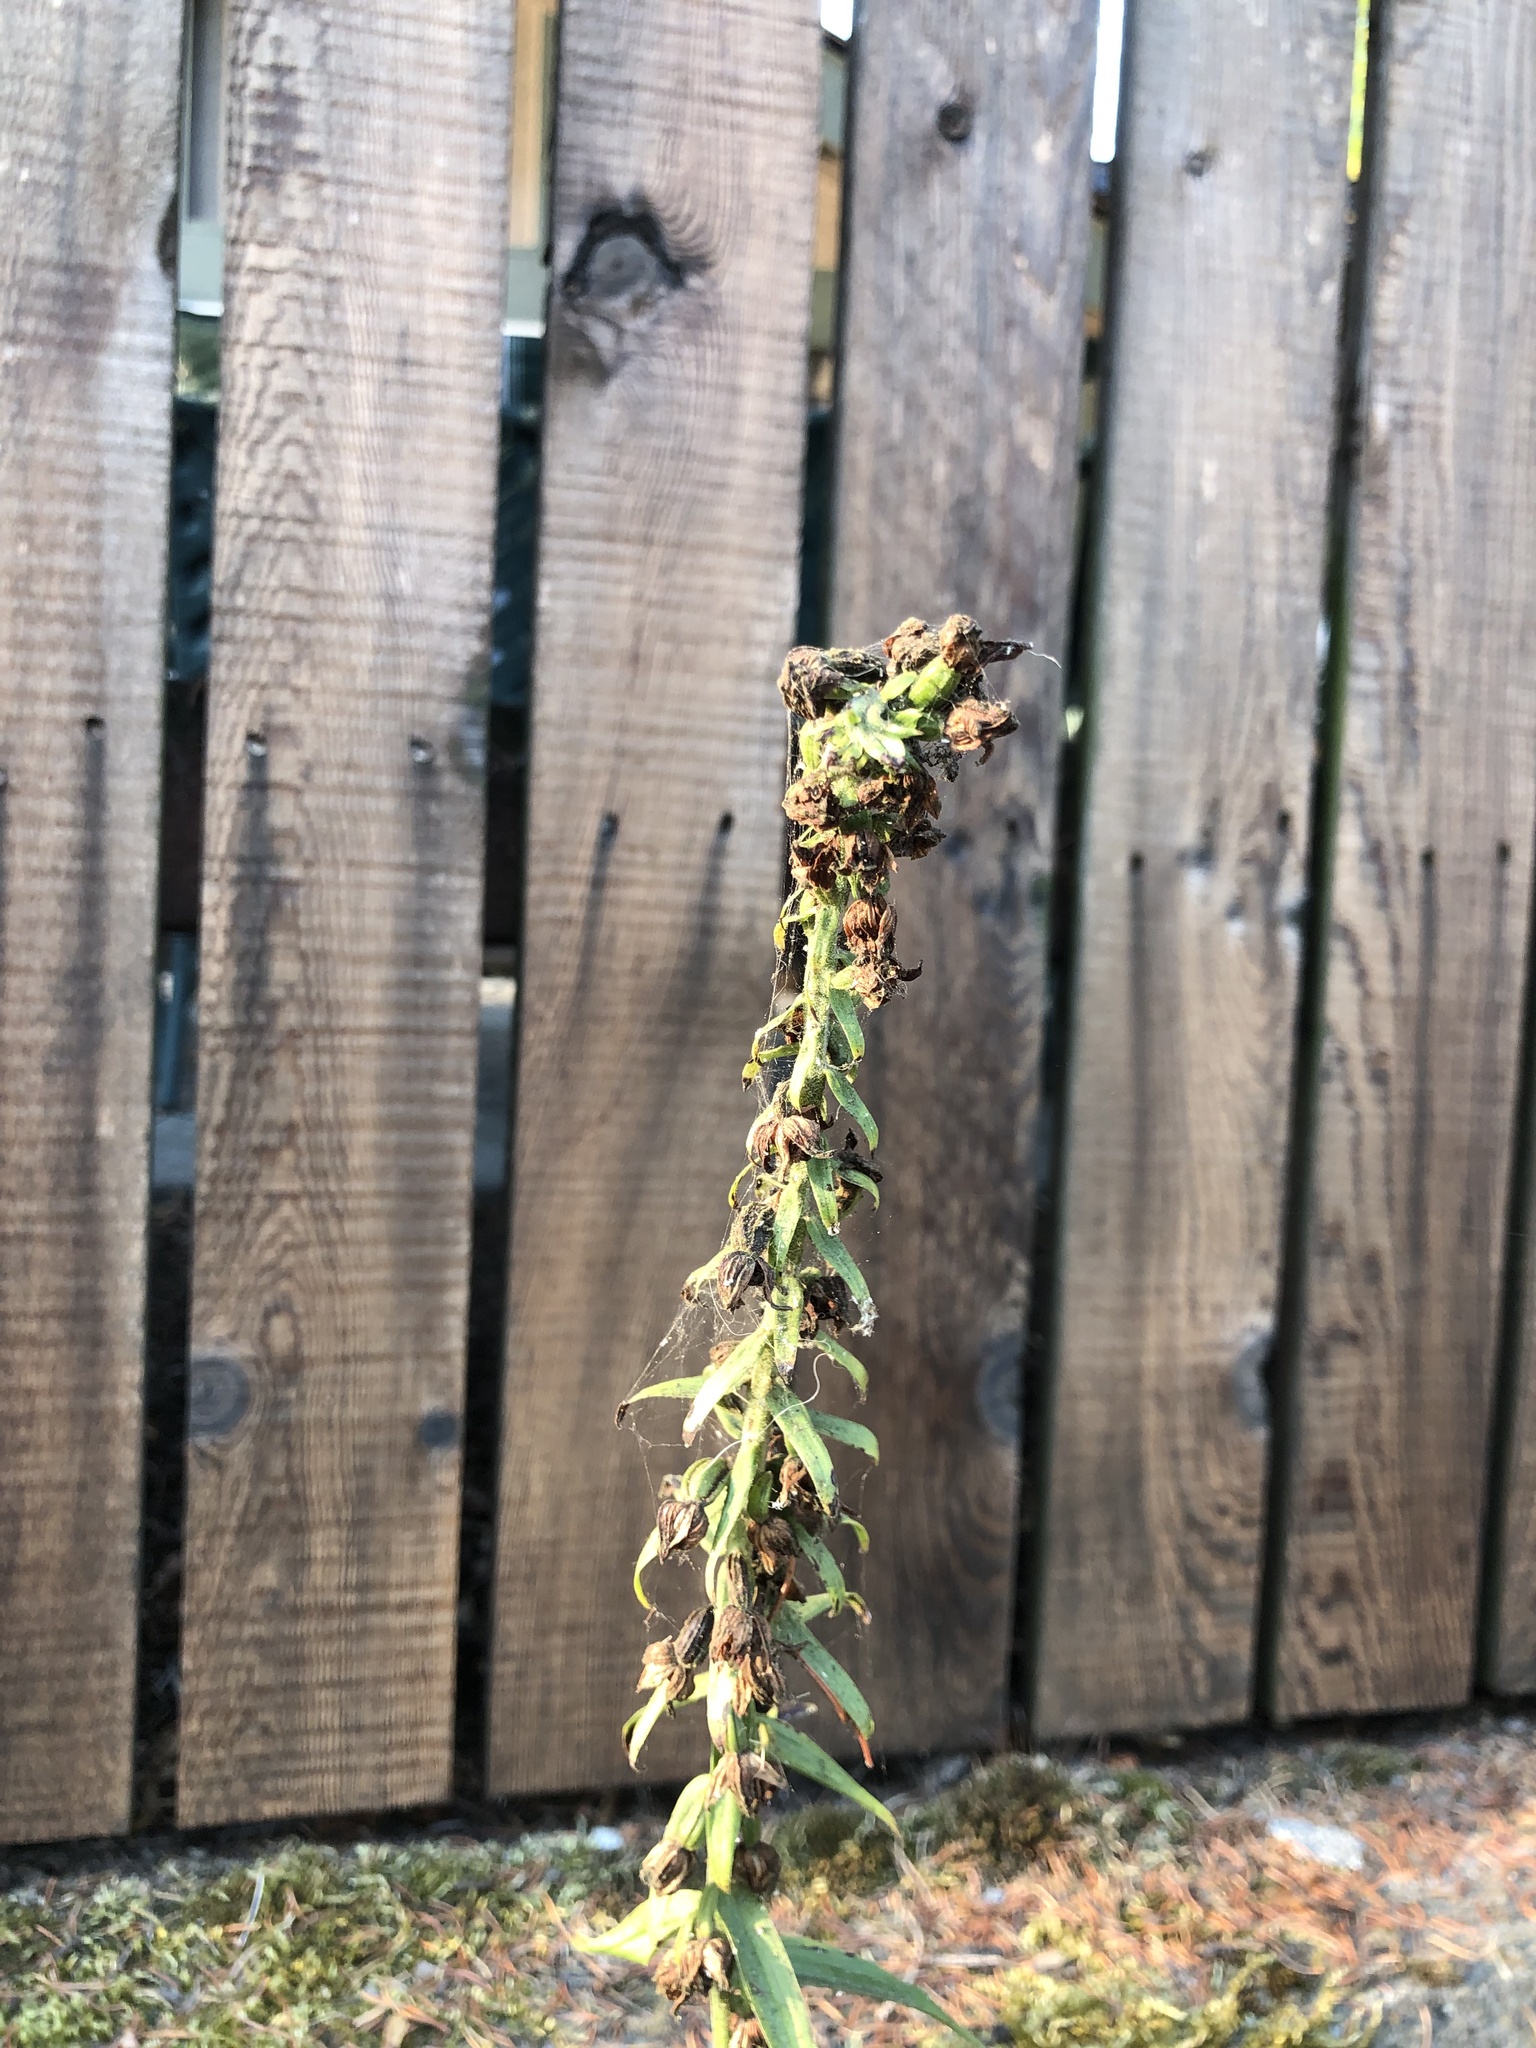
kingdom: Plantae
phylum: Tracheophyta
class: Liliopsida
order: Asparagales
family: Orchidaceae
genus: Epipactis
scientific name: Epipactis helleborine
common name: Broad-leaved helleborine
